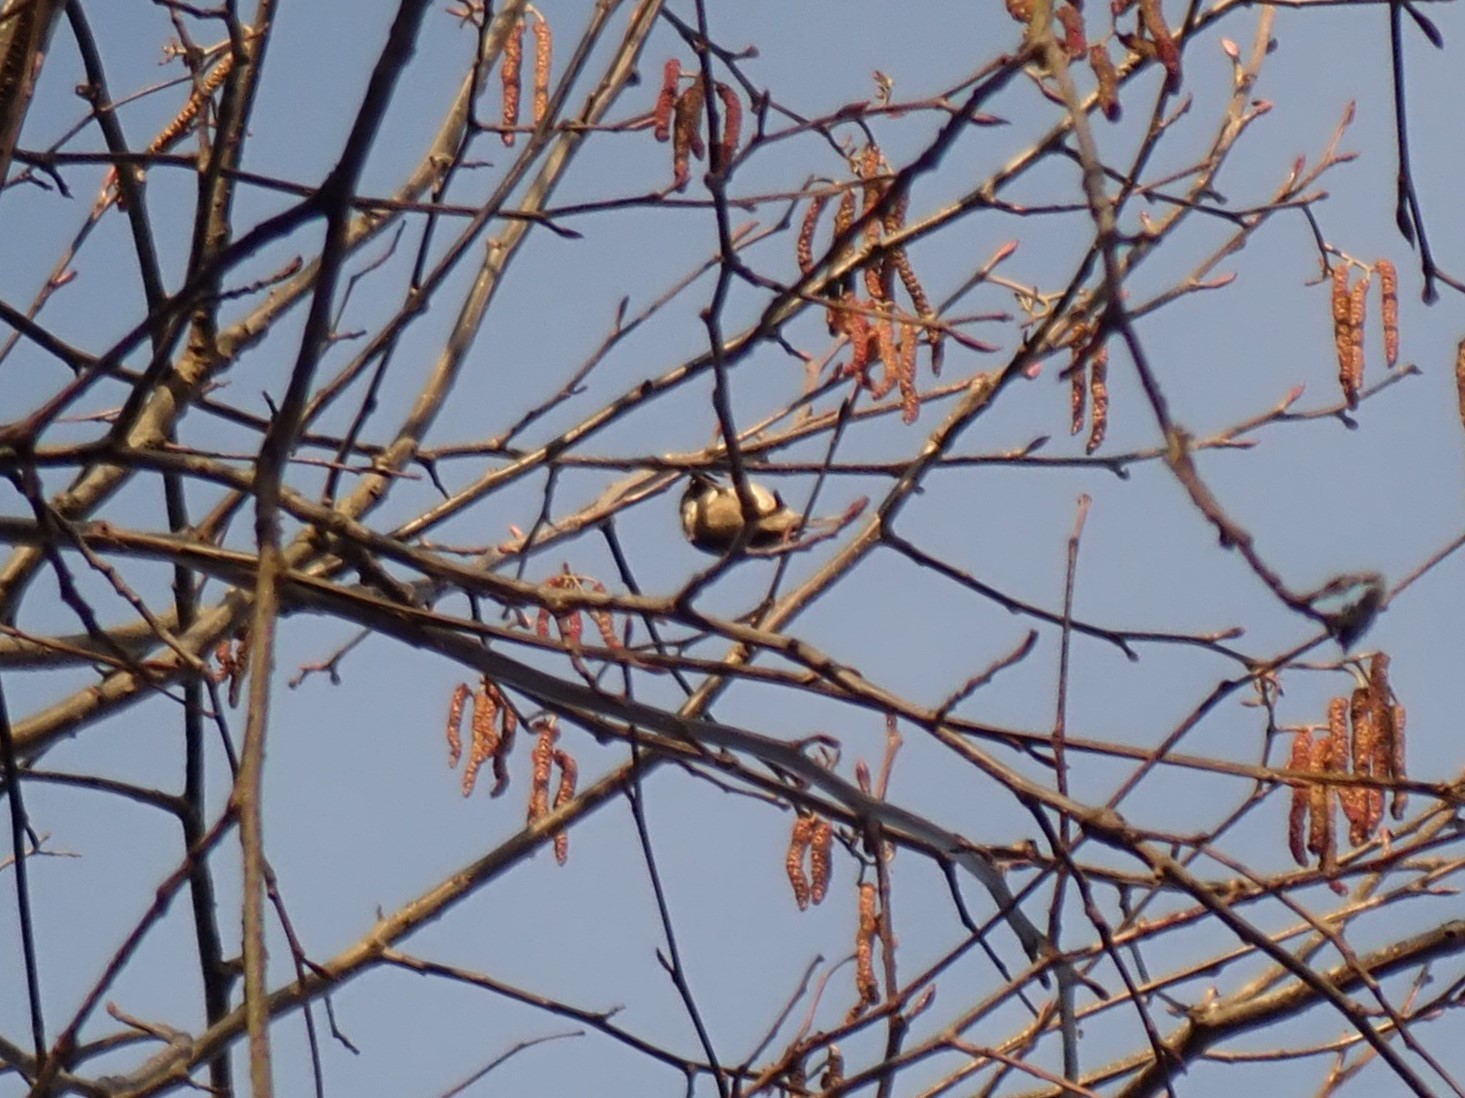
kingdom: Animalia
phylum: Chordata
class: Aves
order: Passeriformes
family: Paridae
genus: Poecile
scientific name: Poecile atricapillus
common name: Black-capped chickadee
